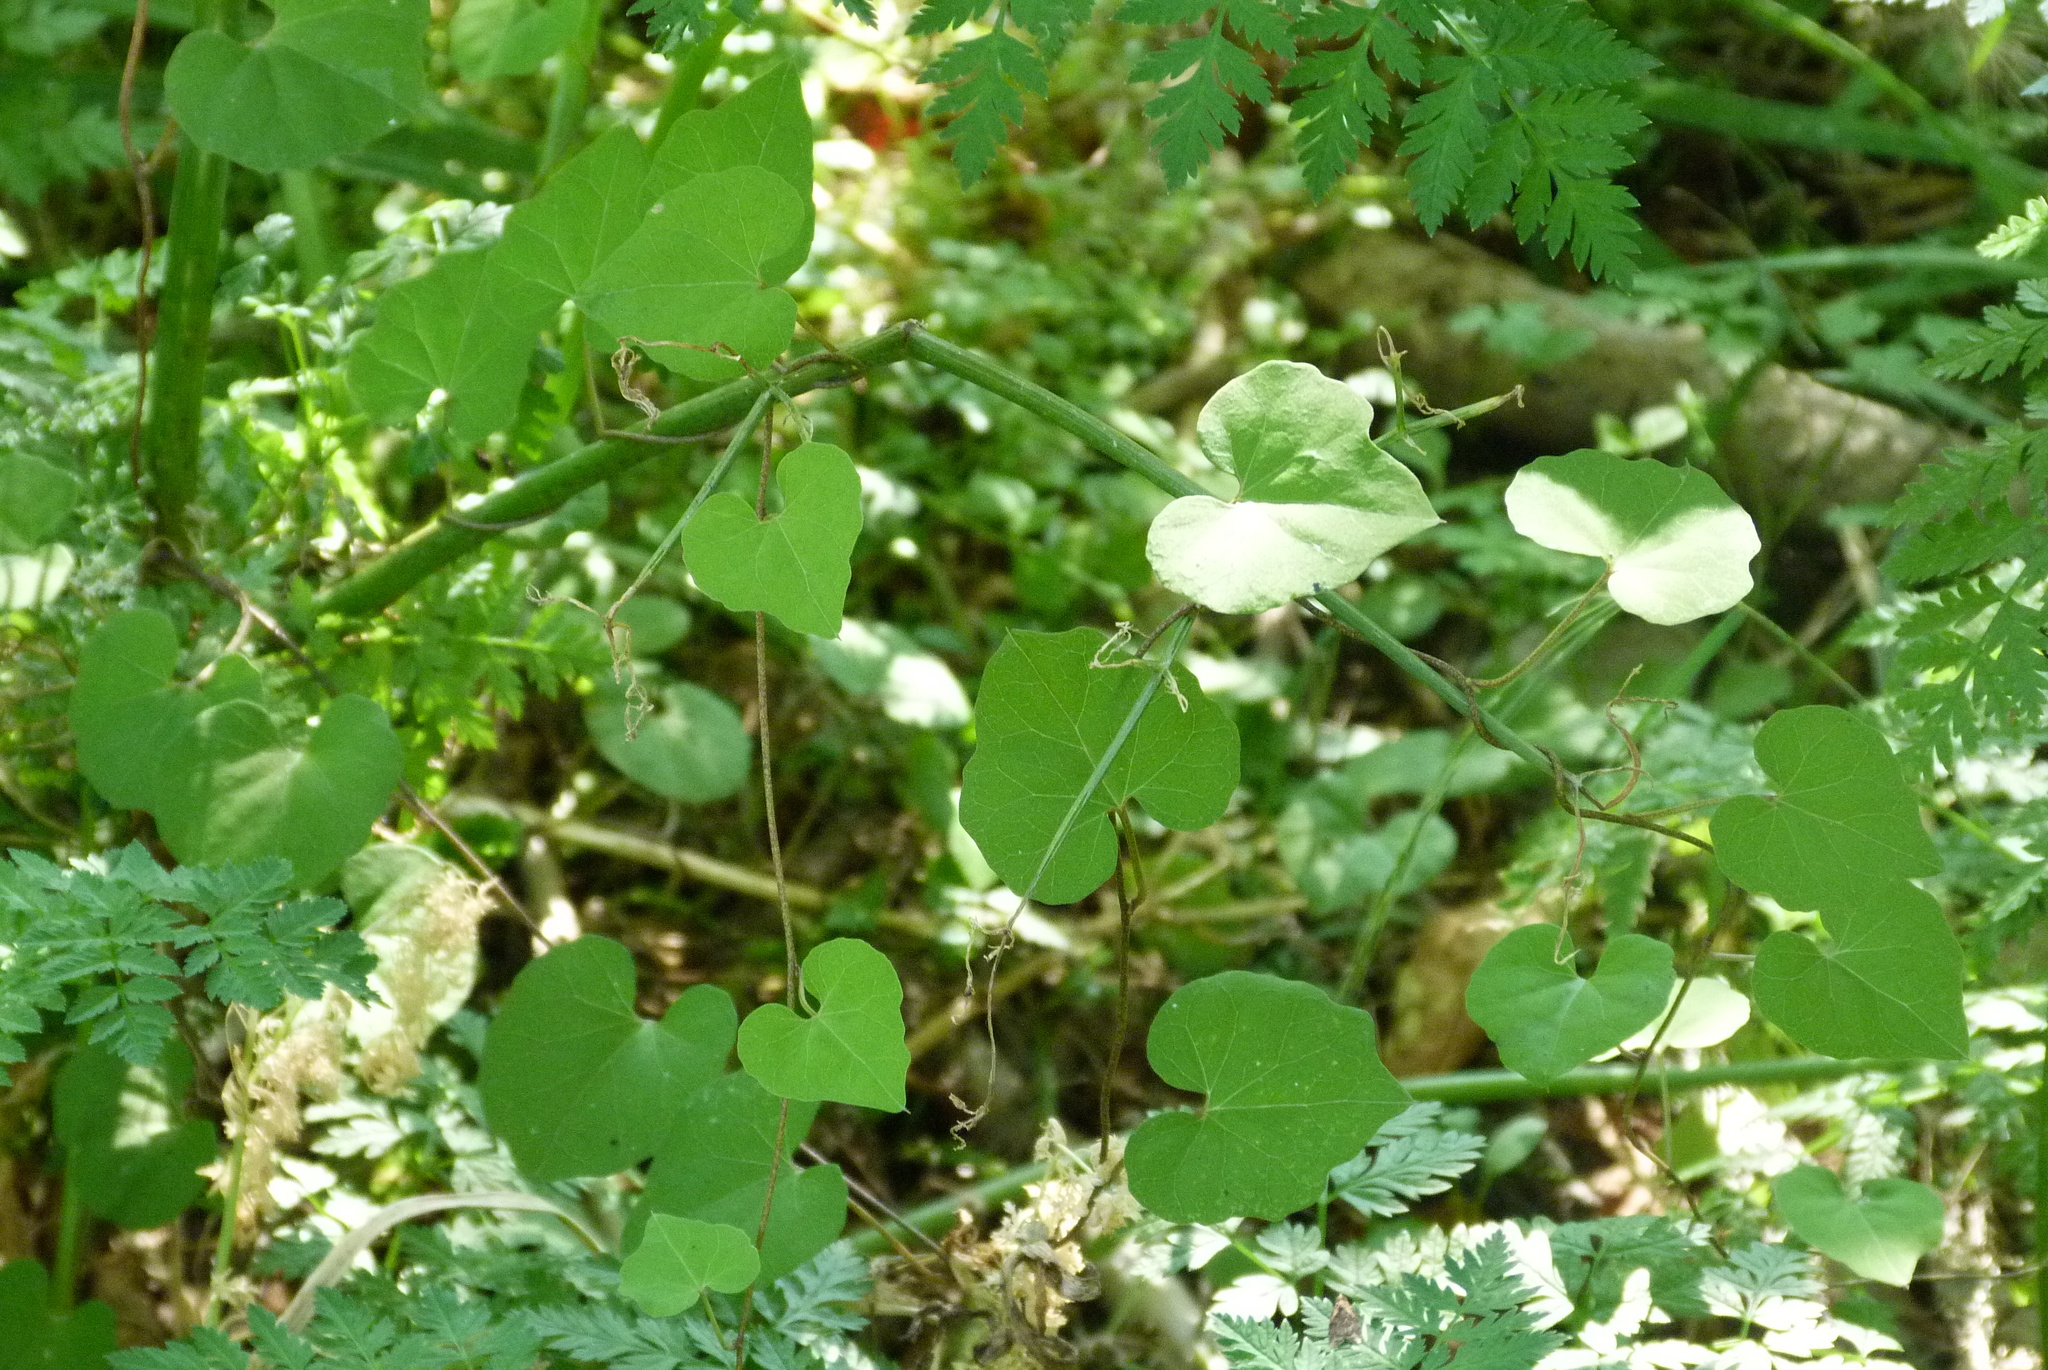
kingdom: Plantae
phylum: Tracheophyta
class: Magnoliopsida
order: Solanales
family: Convolvulaceae
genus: Calystegia
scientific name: Calystegia tuguriorum
